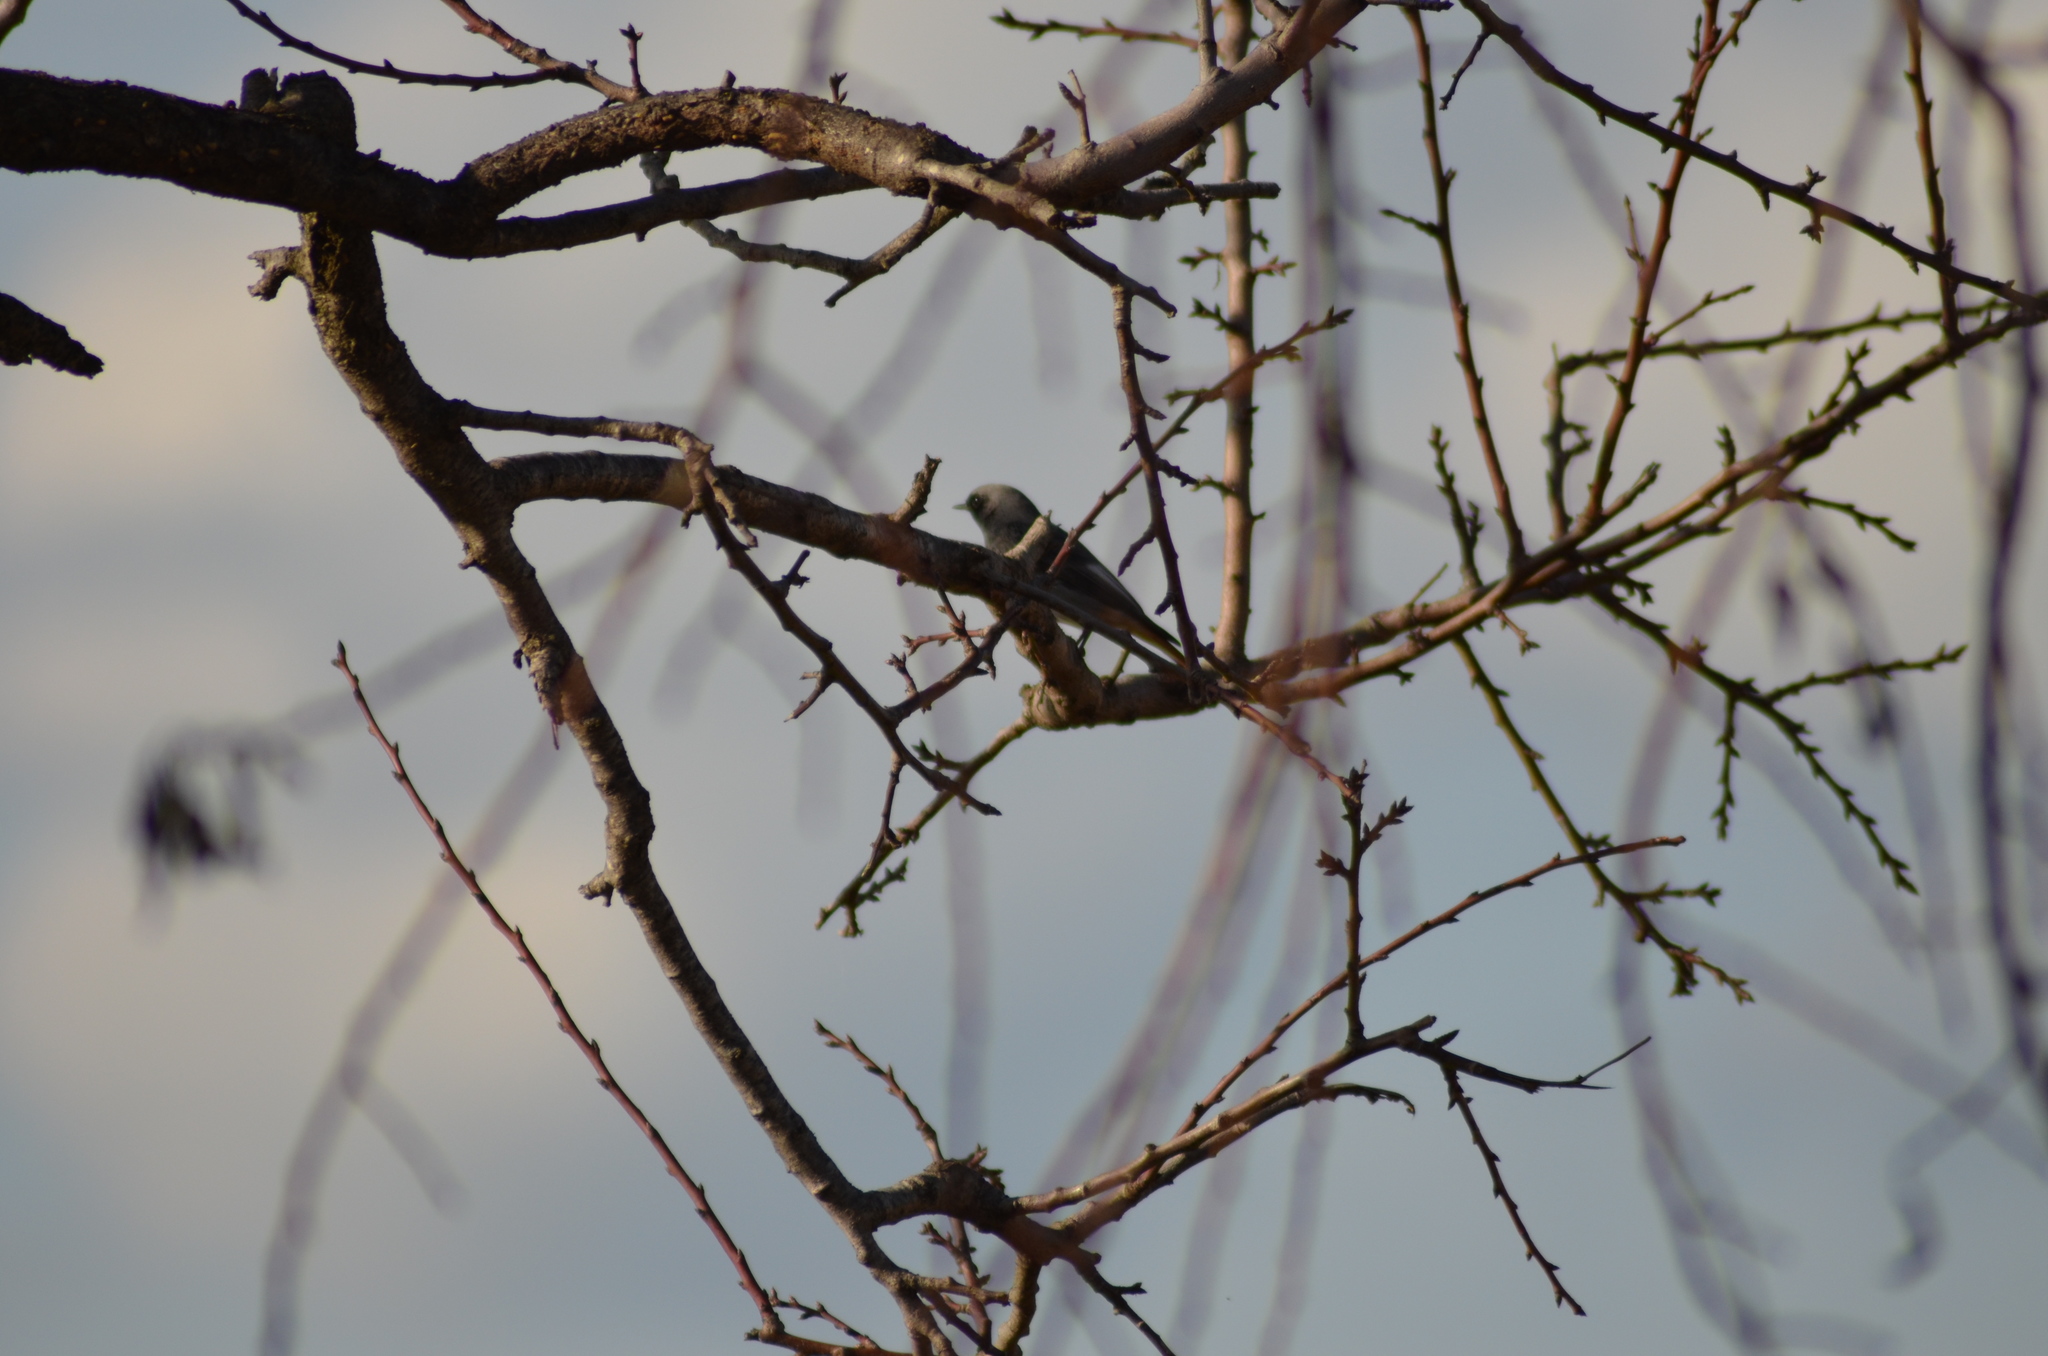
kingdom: Animalia
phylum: Chordata
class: Aves
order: Passeriformes
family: Muscicapidae
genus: Phoenicurus
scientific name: Phoenicurus ochruros
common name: Black redstart
